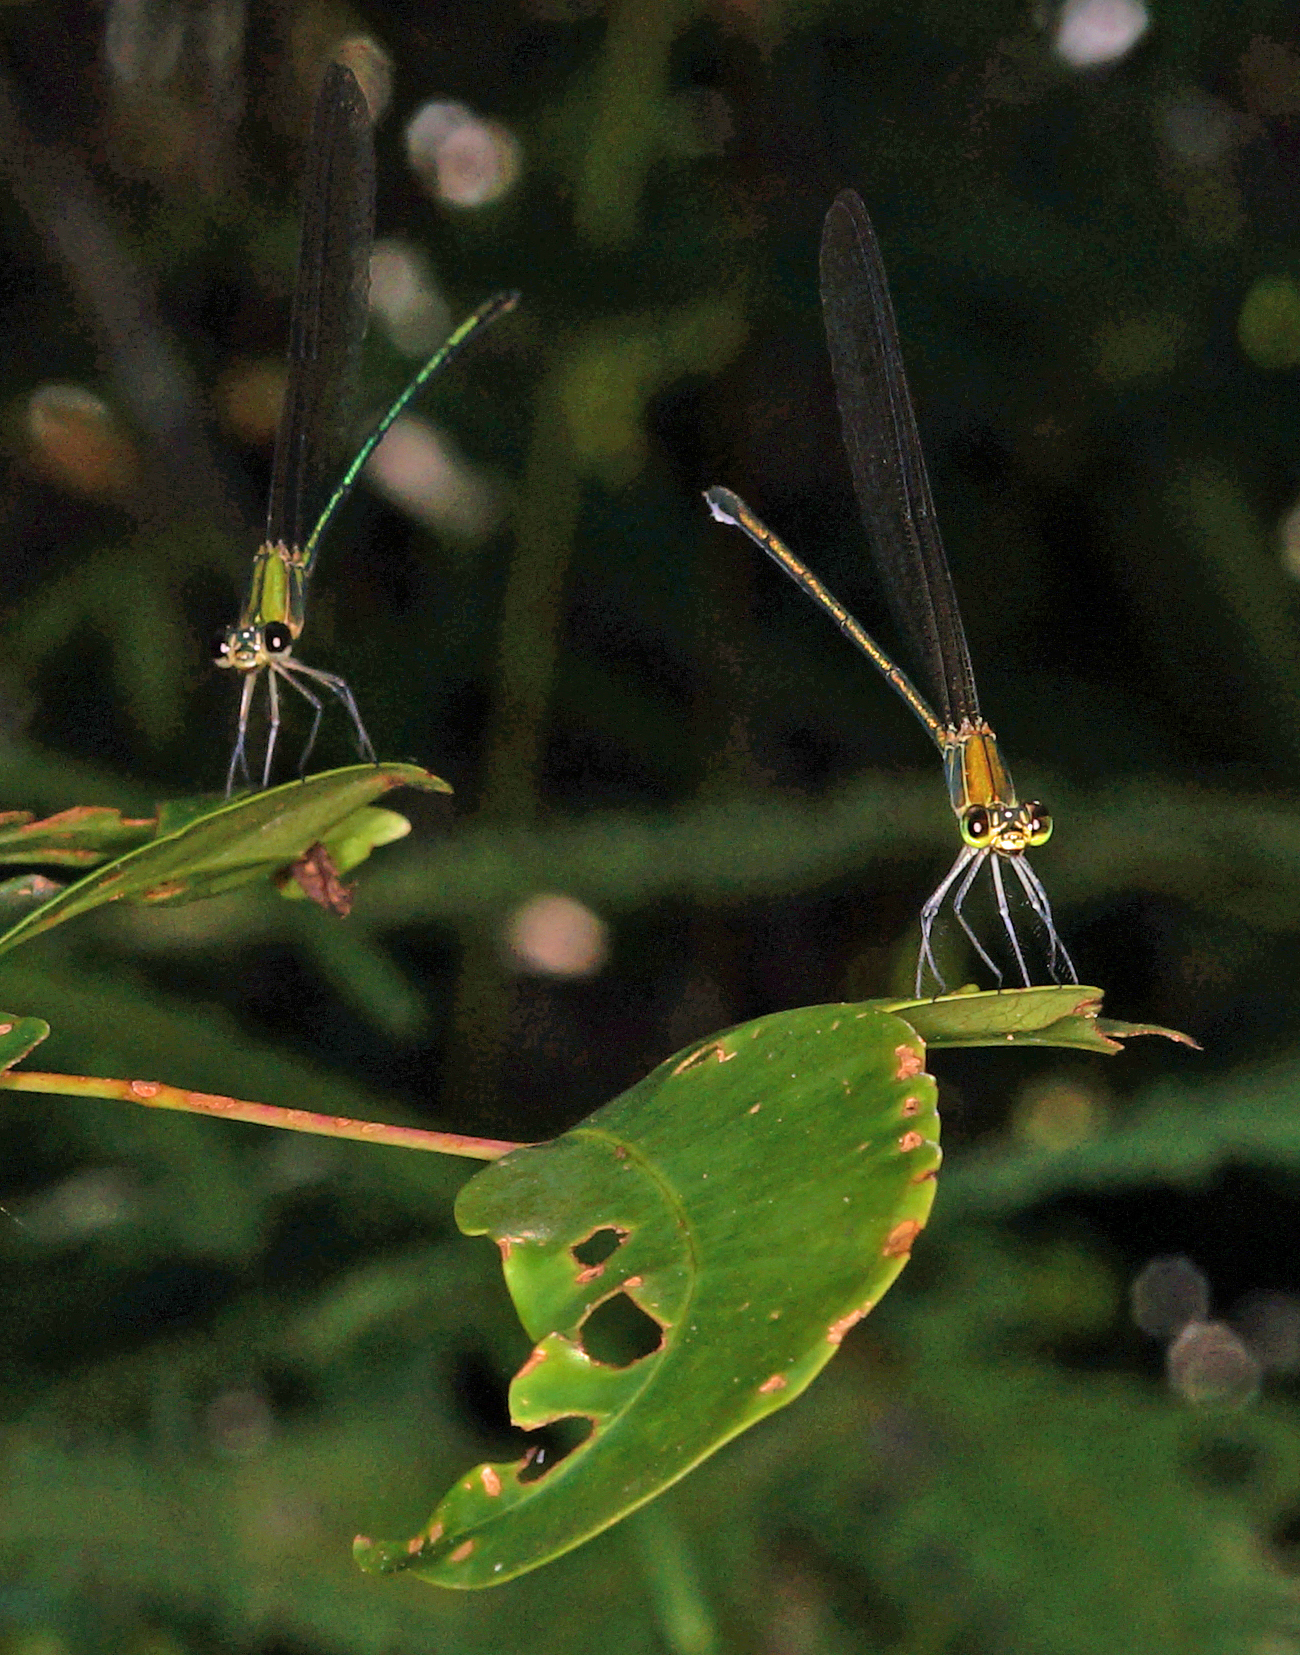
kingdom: Animalia
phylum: Arthropoda
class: Insecta
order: Odonata
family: Calopterygidae
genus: Vestalis
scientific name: Vestalis gracilis
